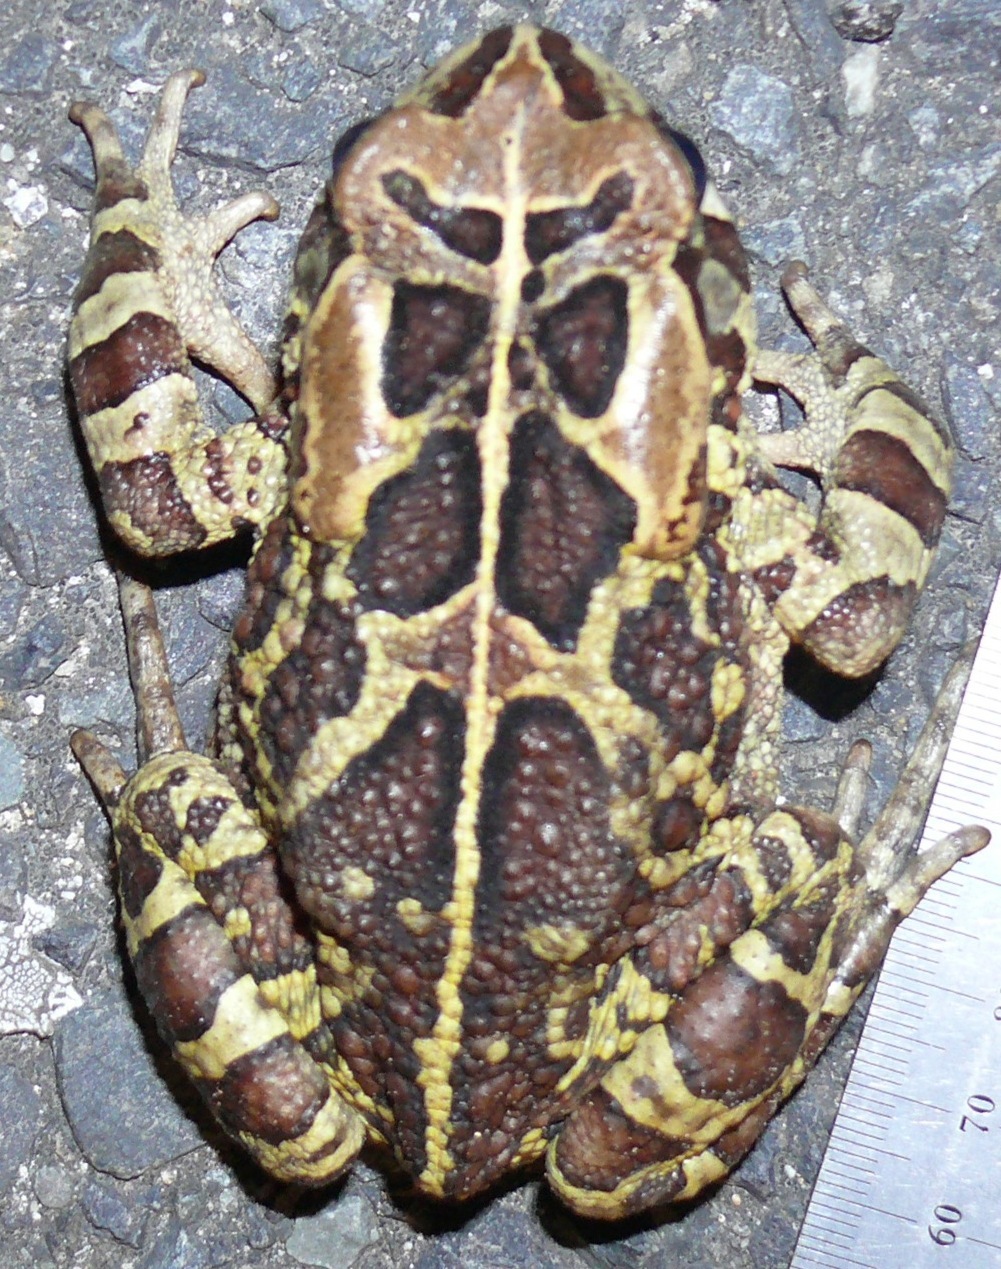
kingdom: Animalia
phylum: Chordata
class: Amphibia
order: Anura
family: Bufonidae
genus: Sclerophrys
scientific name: Sclerophrys pantherina
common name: Panther toad
